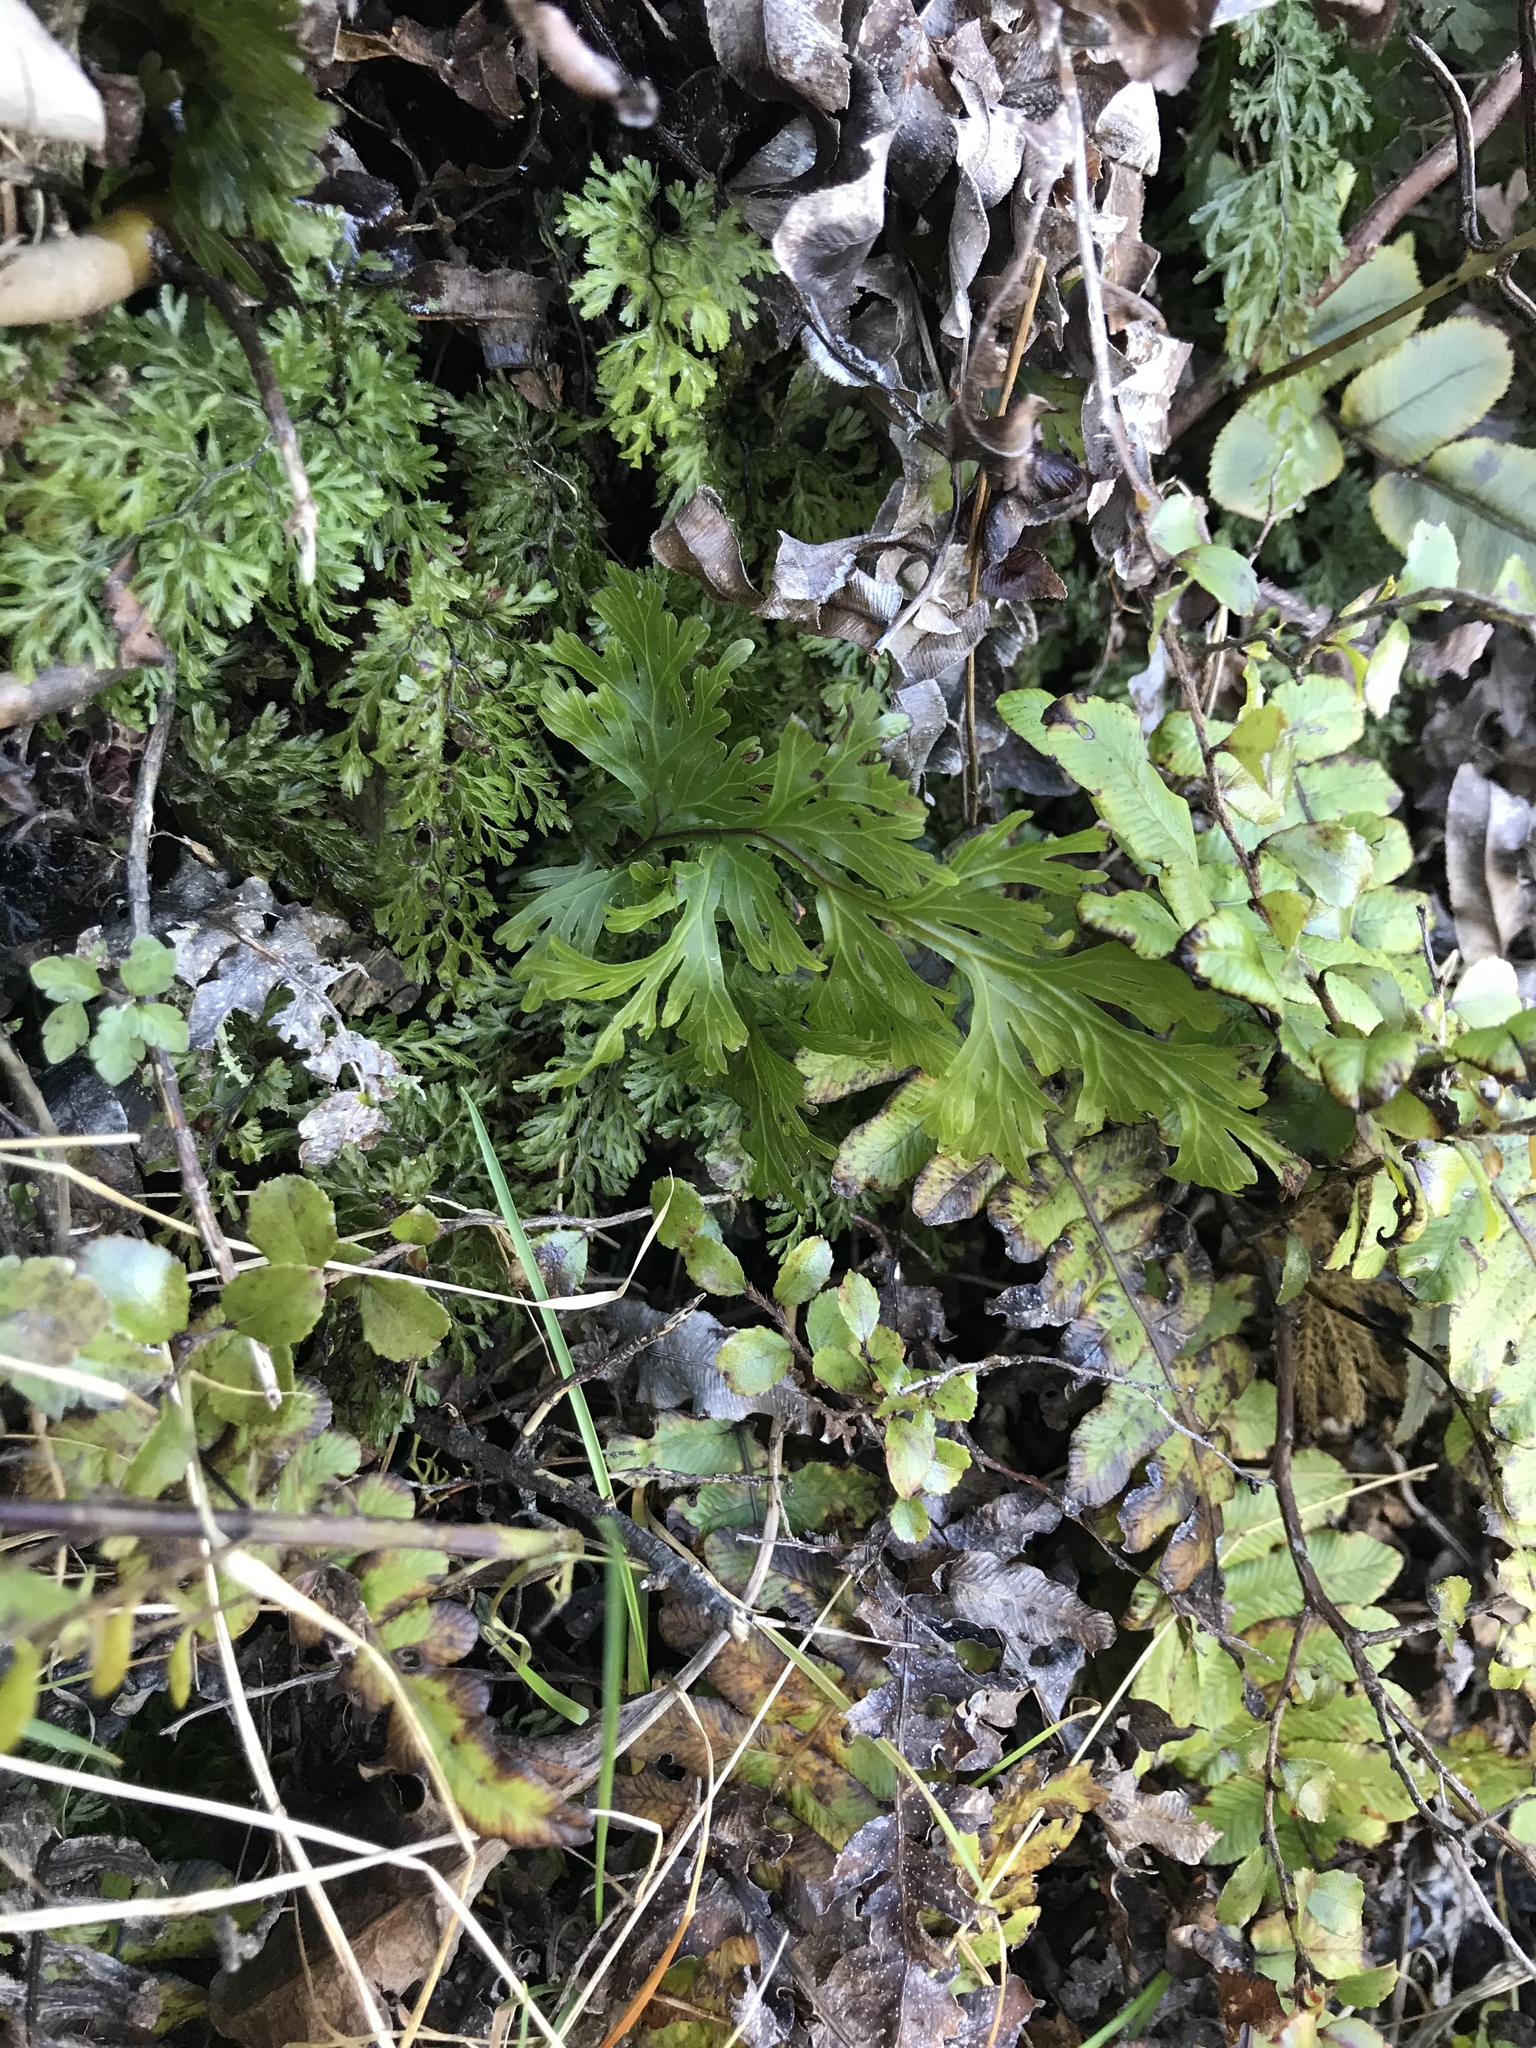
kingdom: Plantae
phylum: Tracheophyta
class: Polypodiopsida
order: Hymenophyllales
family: Hymenophyllaceae
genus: Hymenophyllum
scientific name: Hymenophyllum dilatatum
